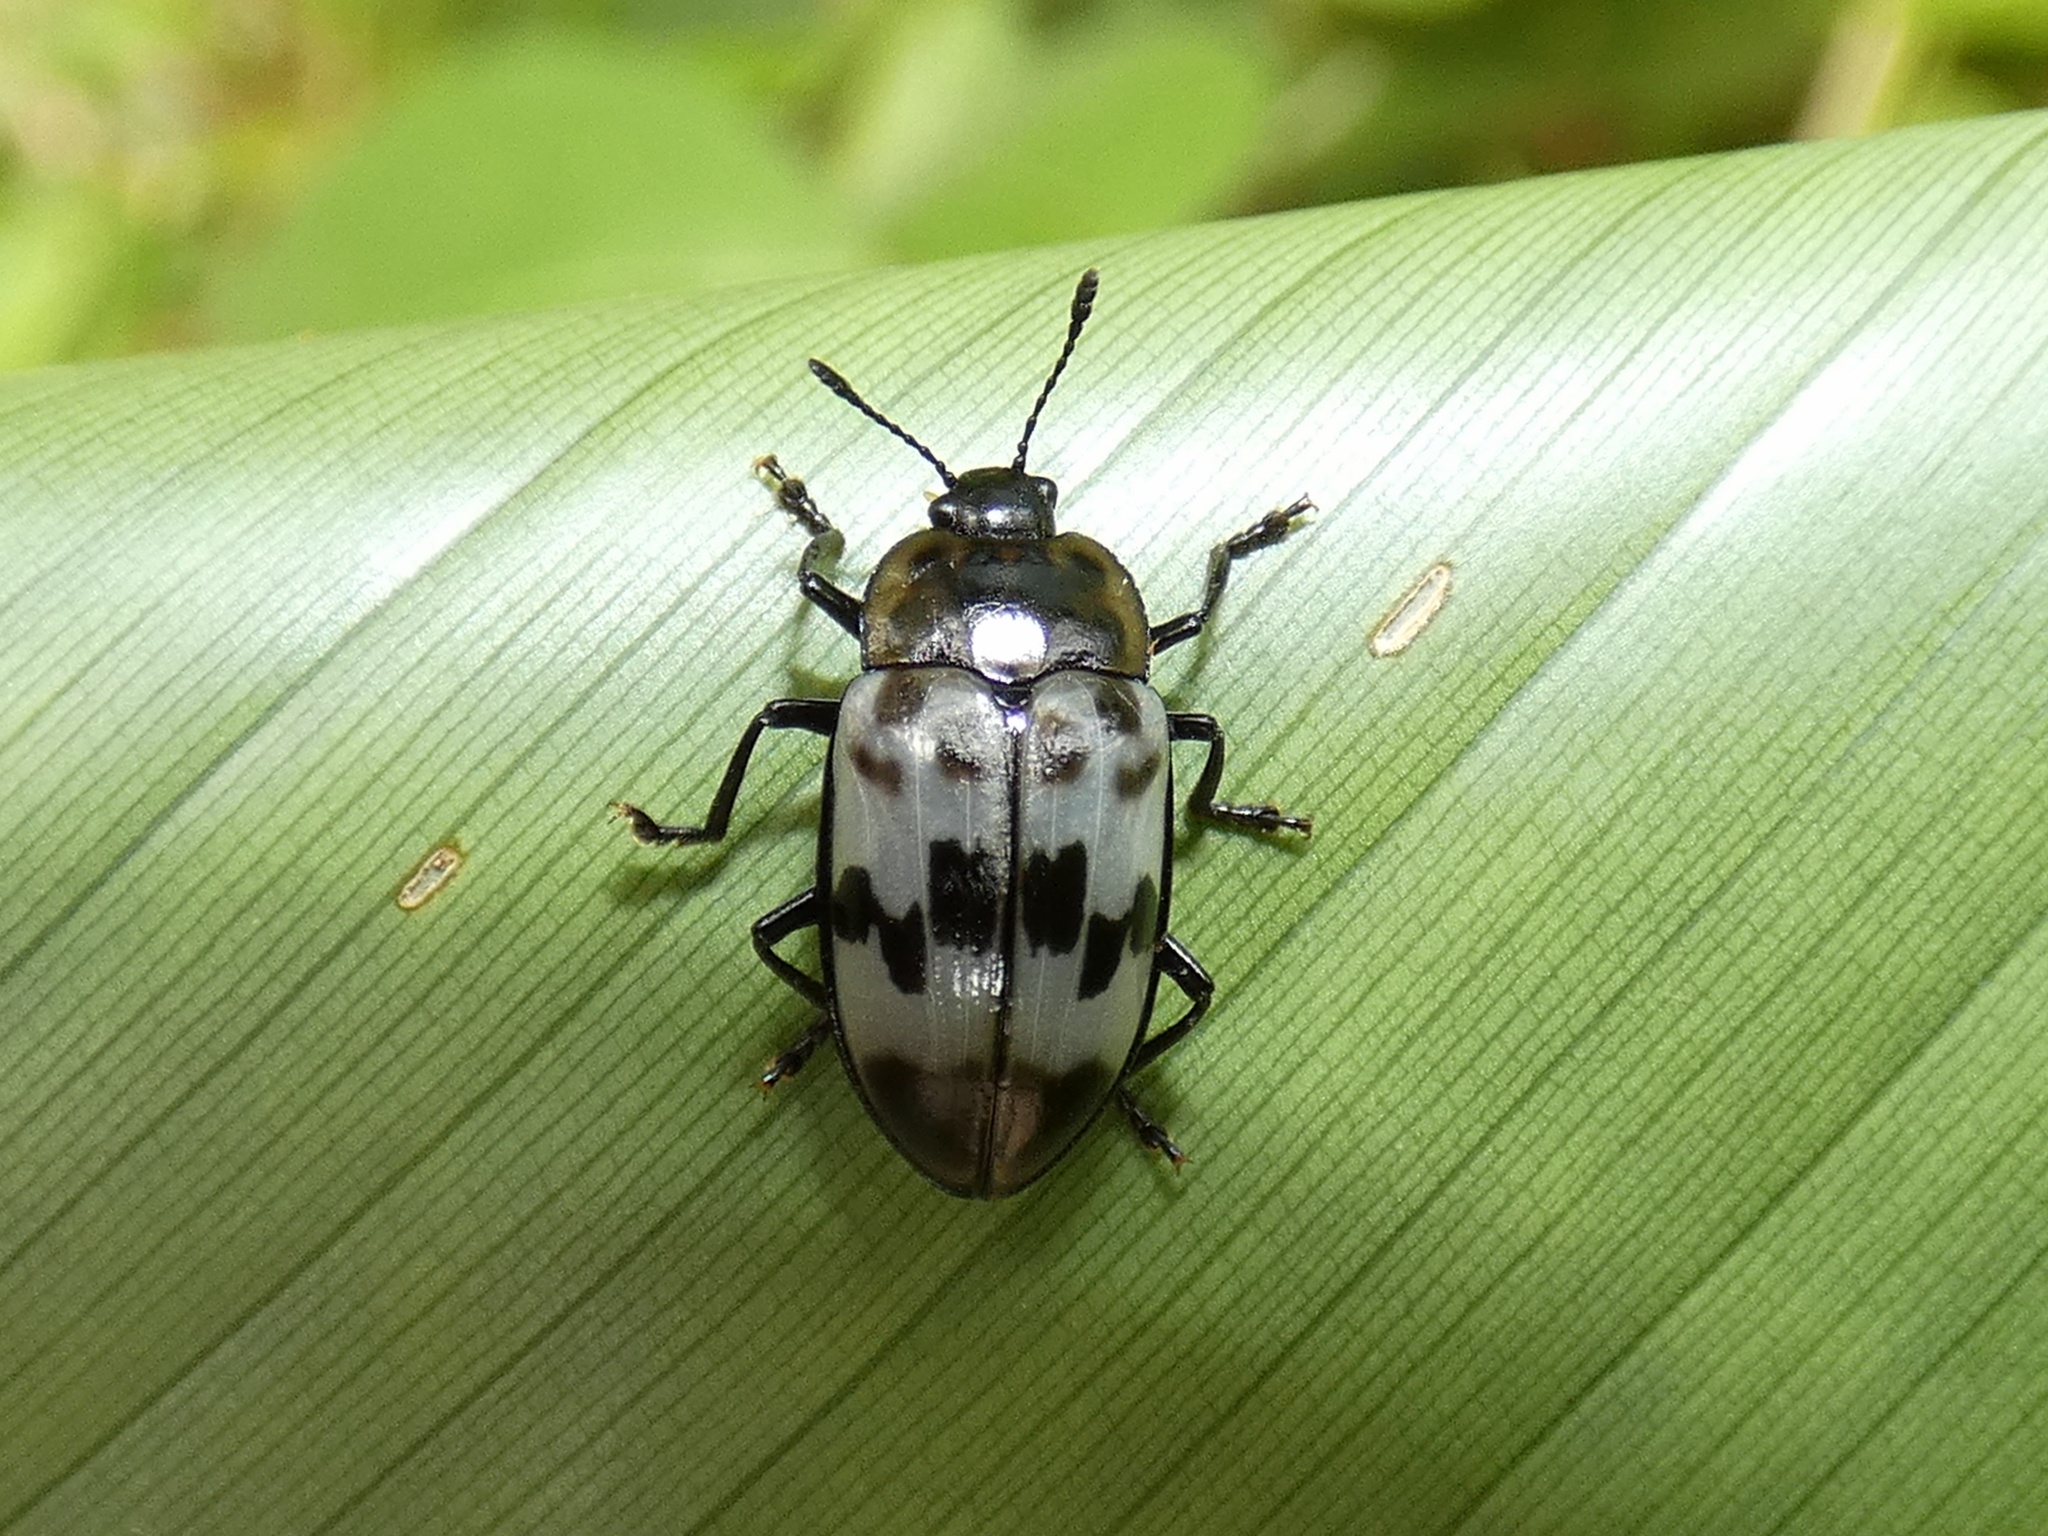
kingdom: Animalia
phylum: Arthropoda
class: Insecta
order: Coleoptera
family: Erotylidae
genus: Prepopharus
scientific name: Prepopharus eduardoi
